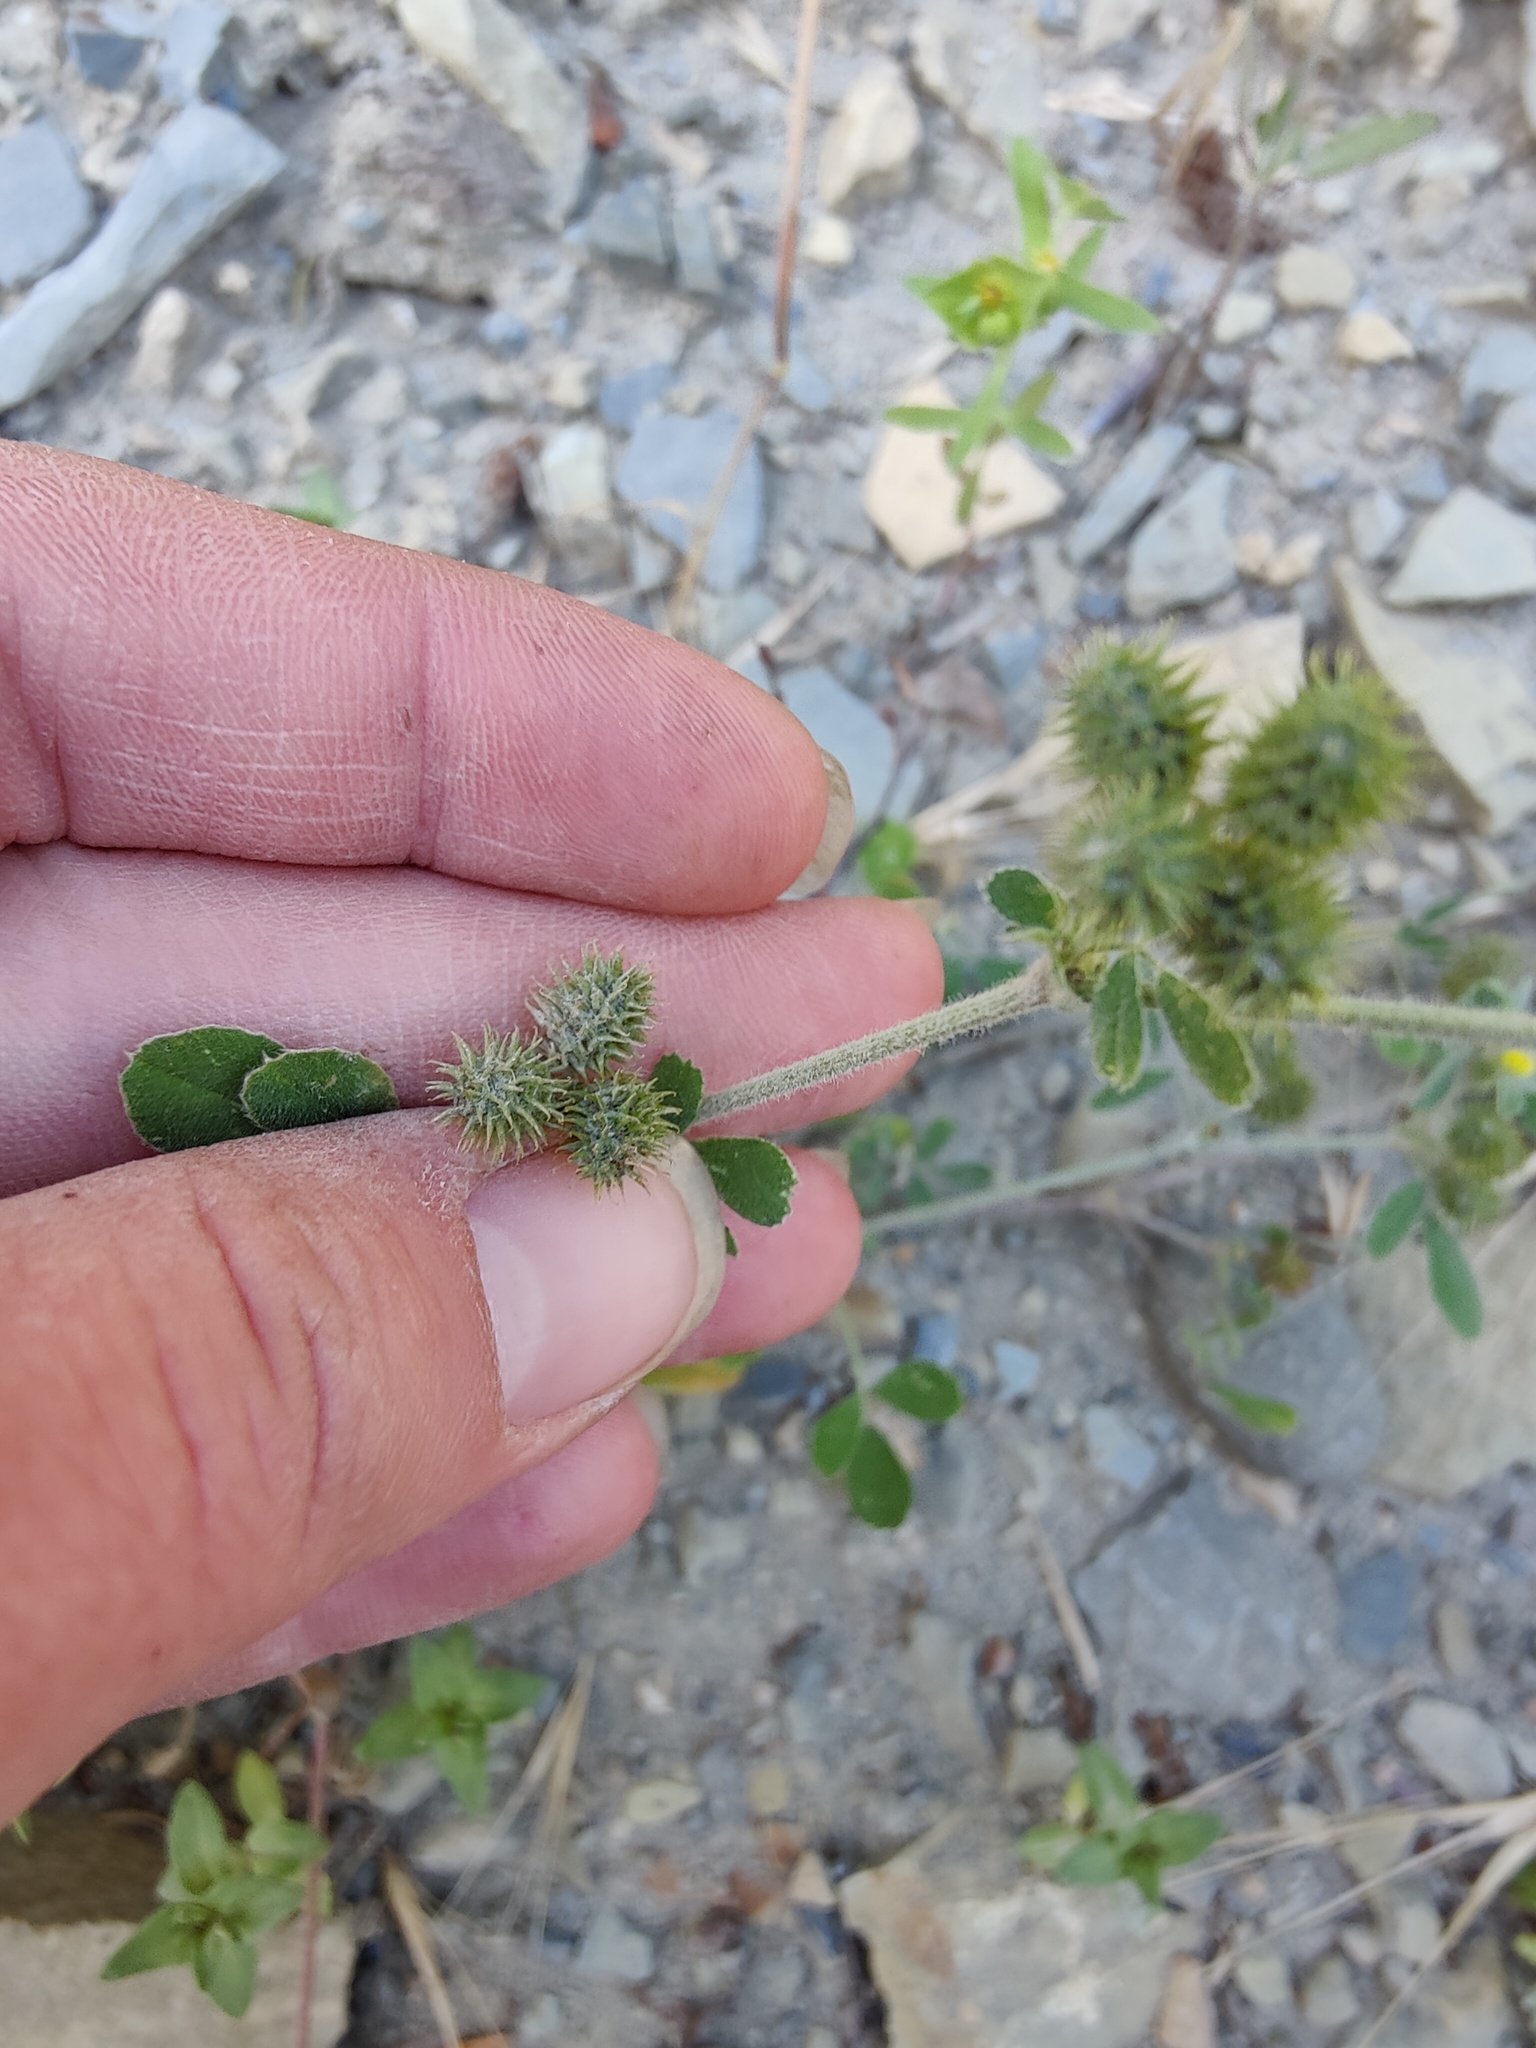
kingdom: Plantae
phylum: Tracheophyta
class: Magnoliopsida
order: Fabales
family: Fabaceae
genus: Medicago
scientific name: Medicago minima
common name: Little bur-clover
